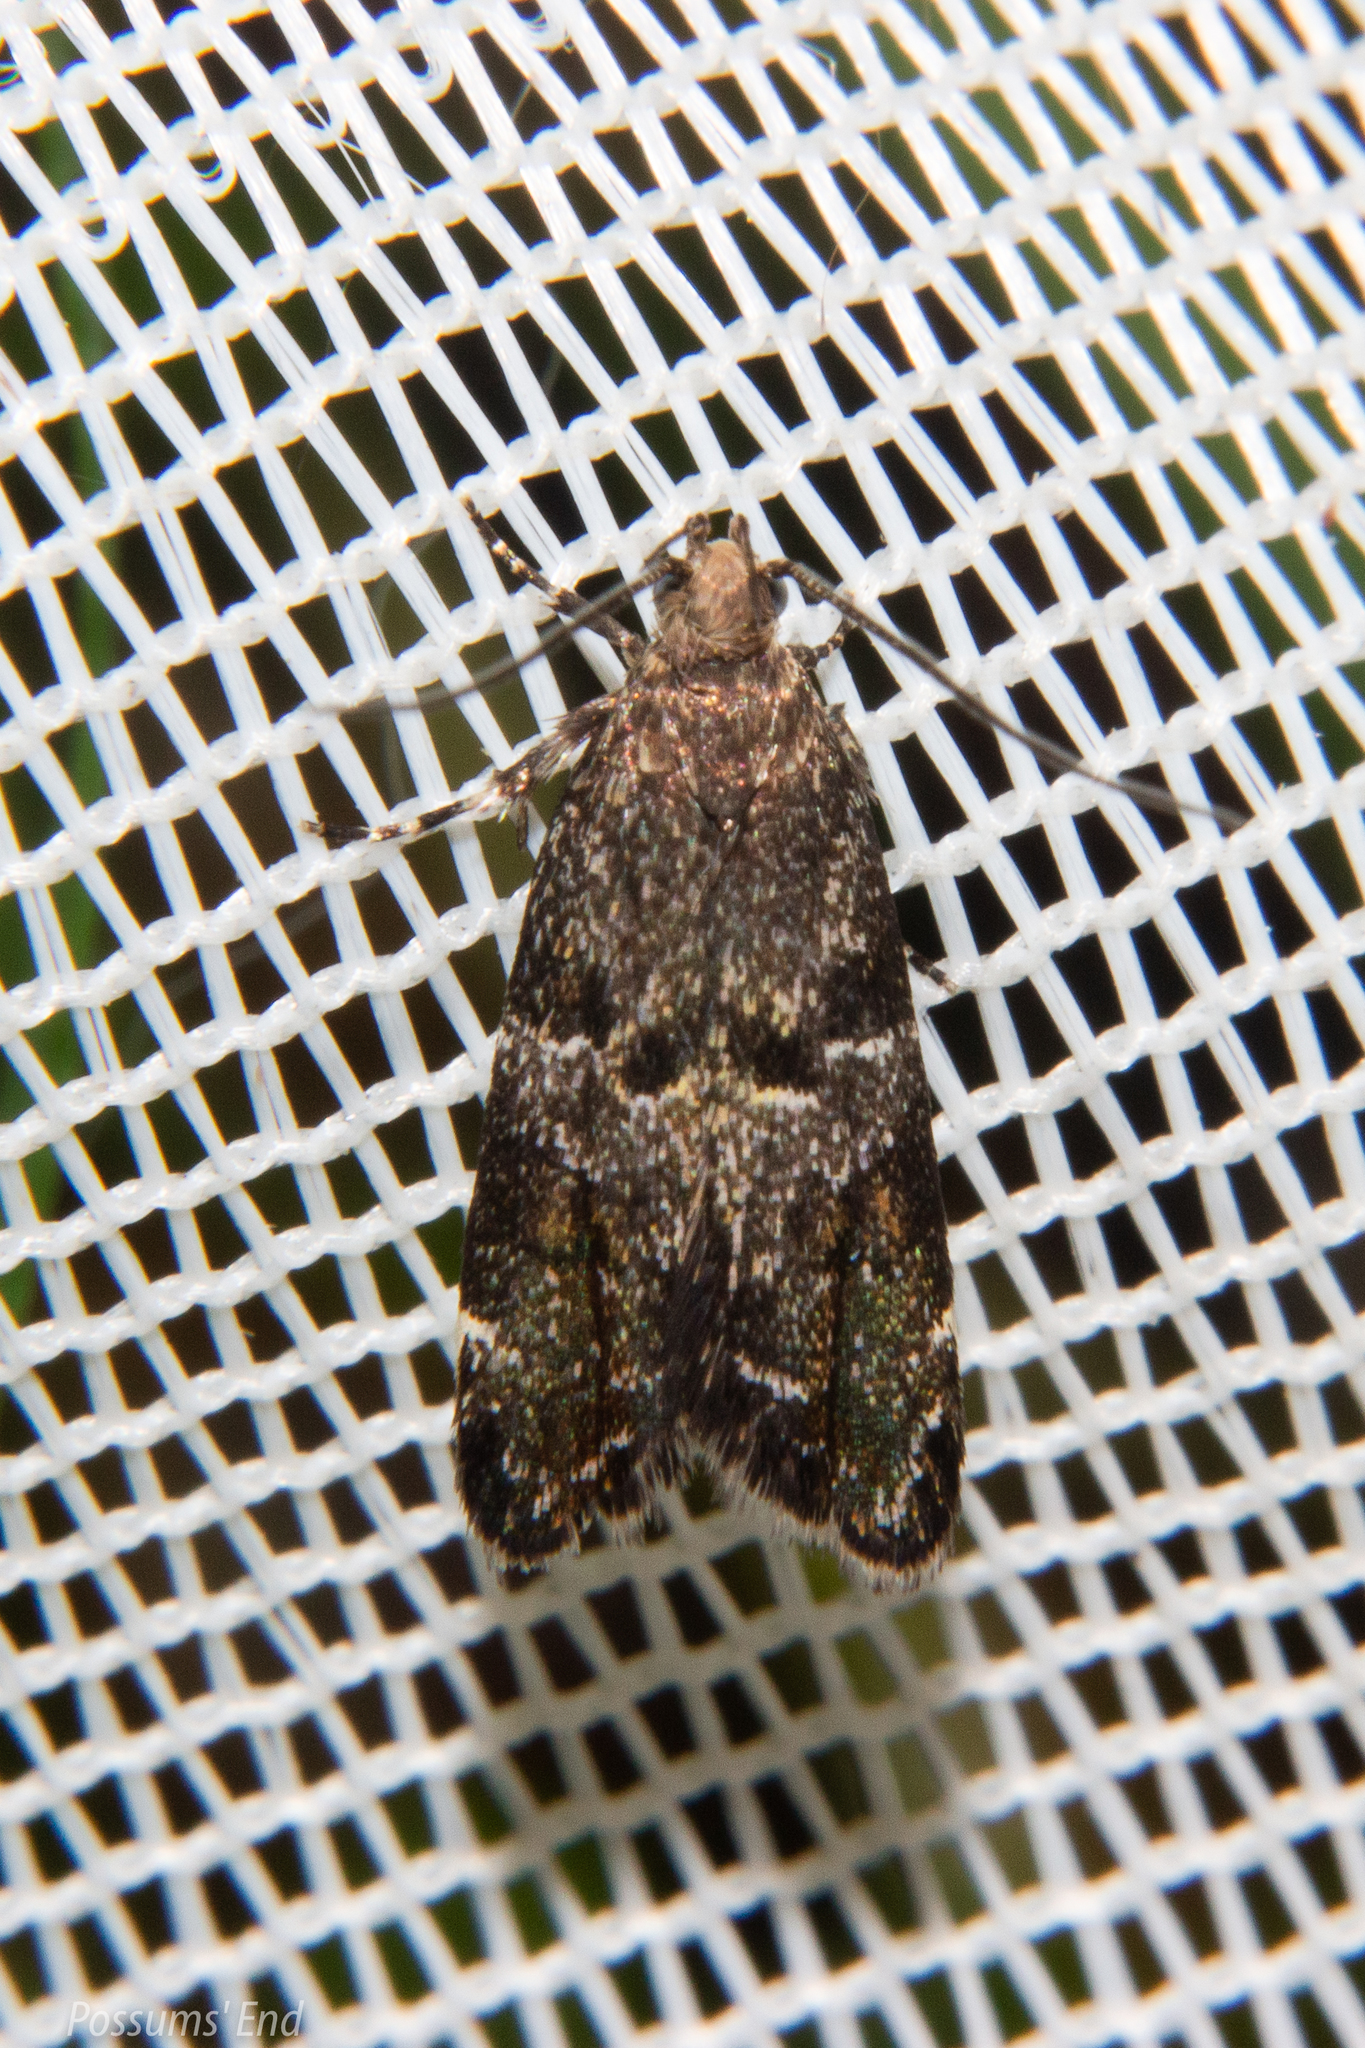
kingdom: Animalia
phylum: Arthropoda
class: Insecta
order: Lepidoptera
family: Oecophoridae
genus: Gymnobathra
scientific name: Gymnobathra omphalota
